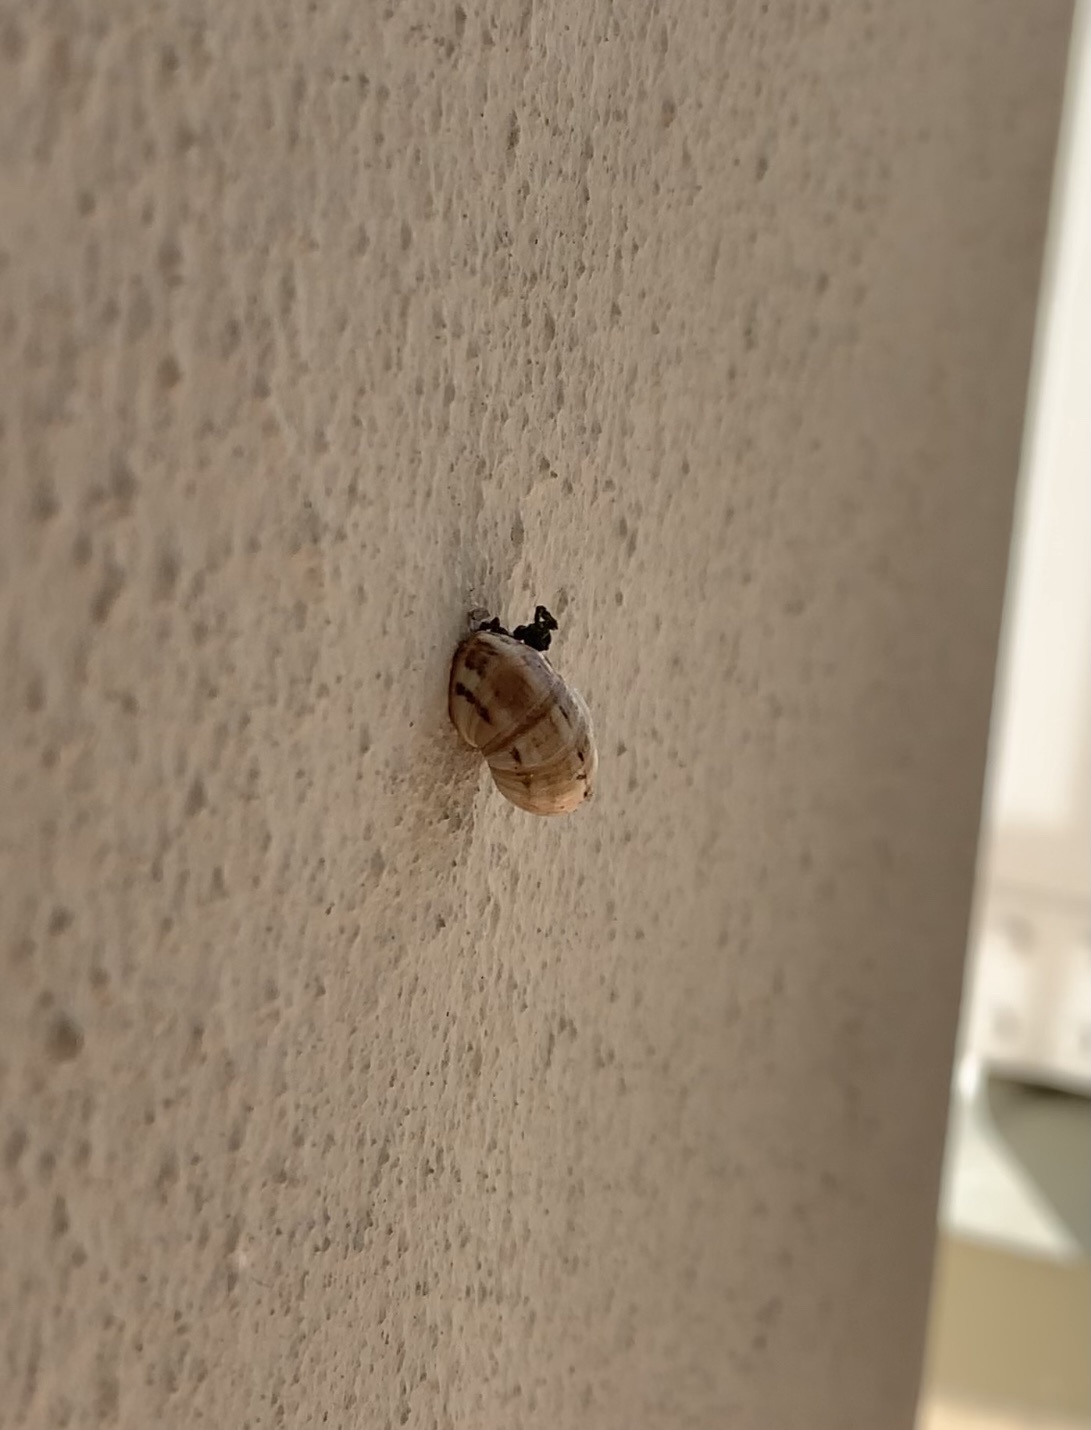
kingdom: Animalia
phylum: Mollusca
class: Gastropoda
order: Stylommatophora
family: Helicidae
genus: Theba
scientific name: Theba pisana
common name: White snail
